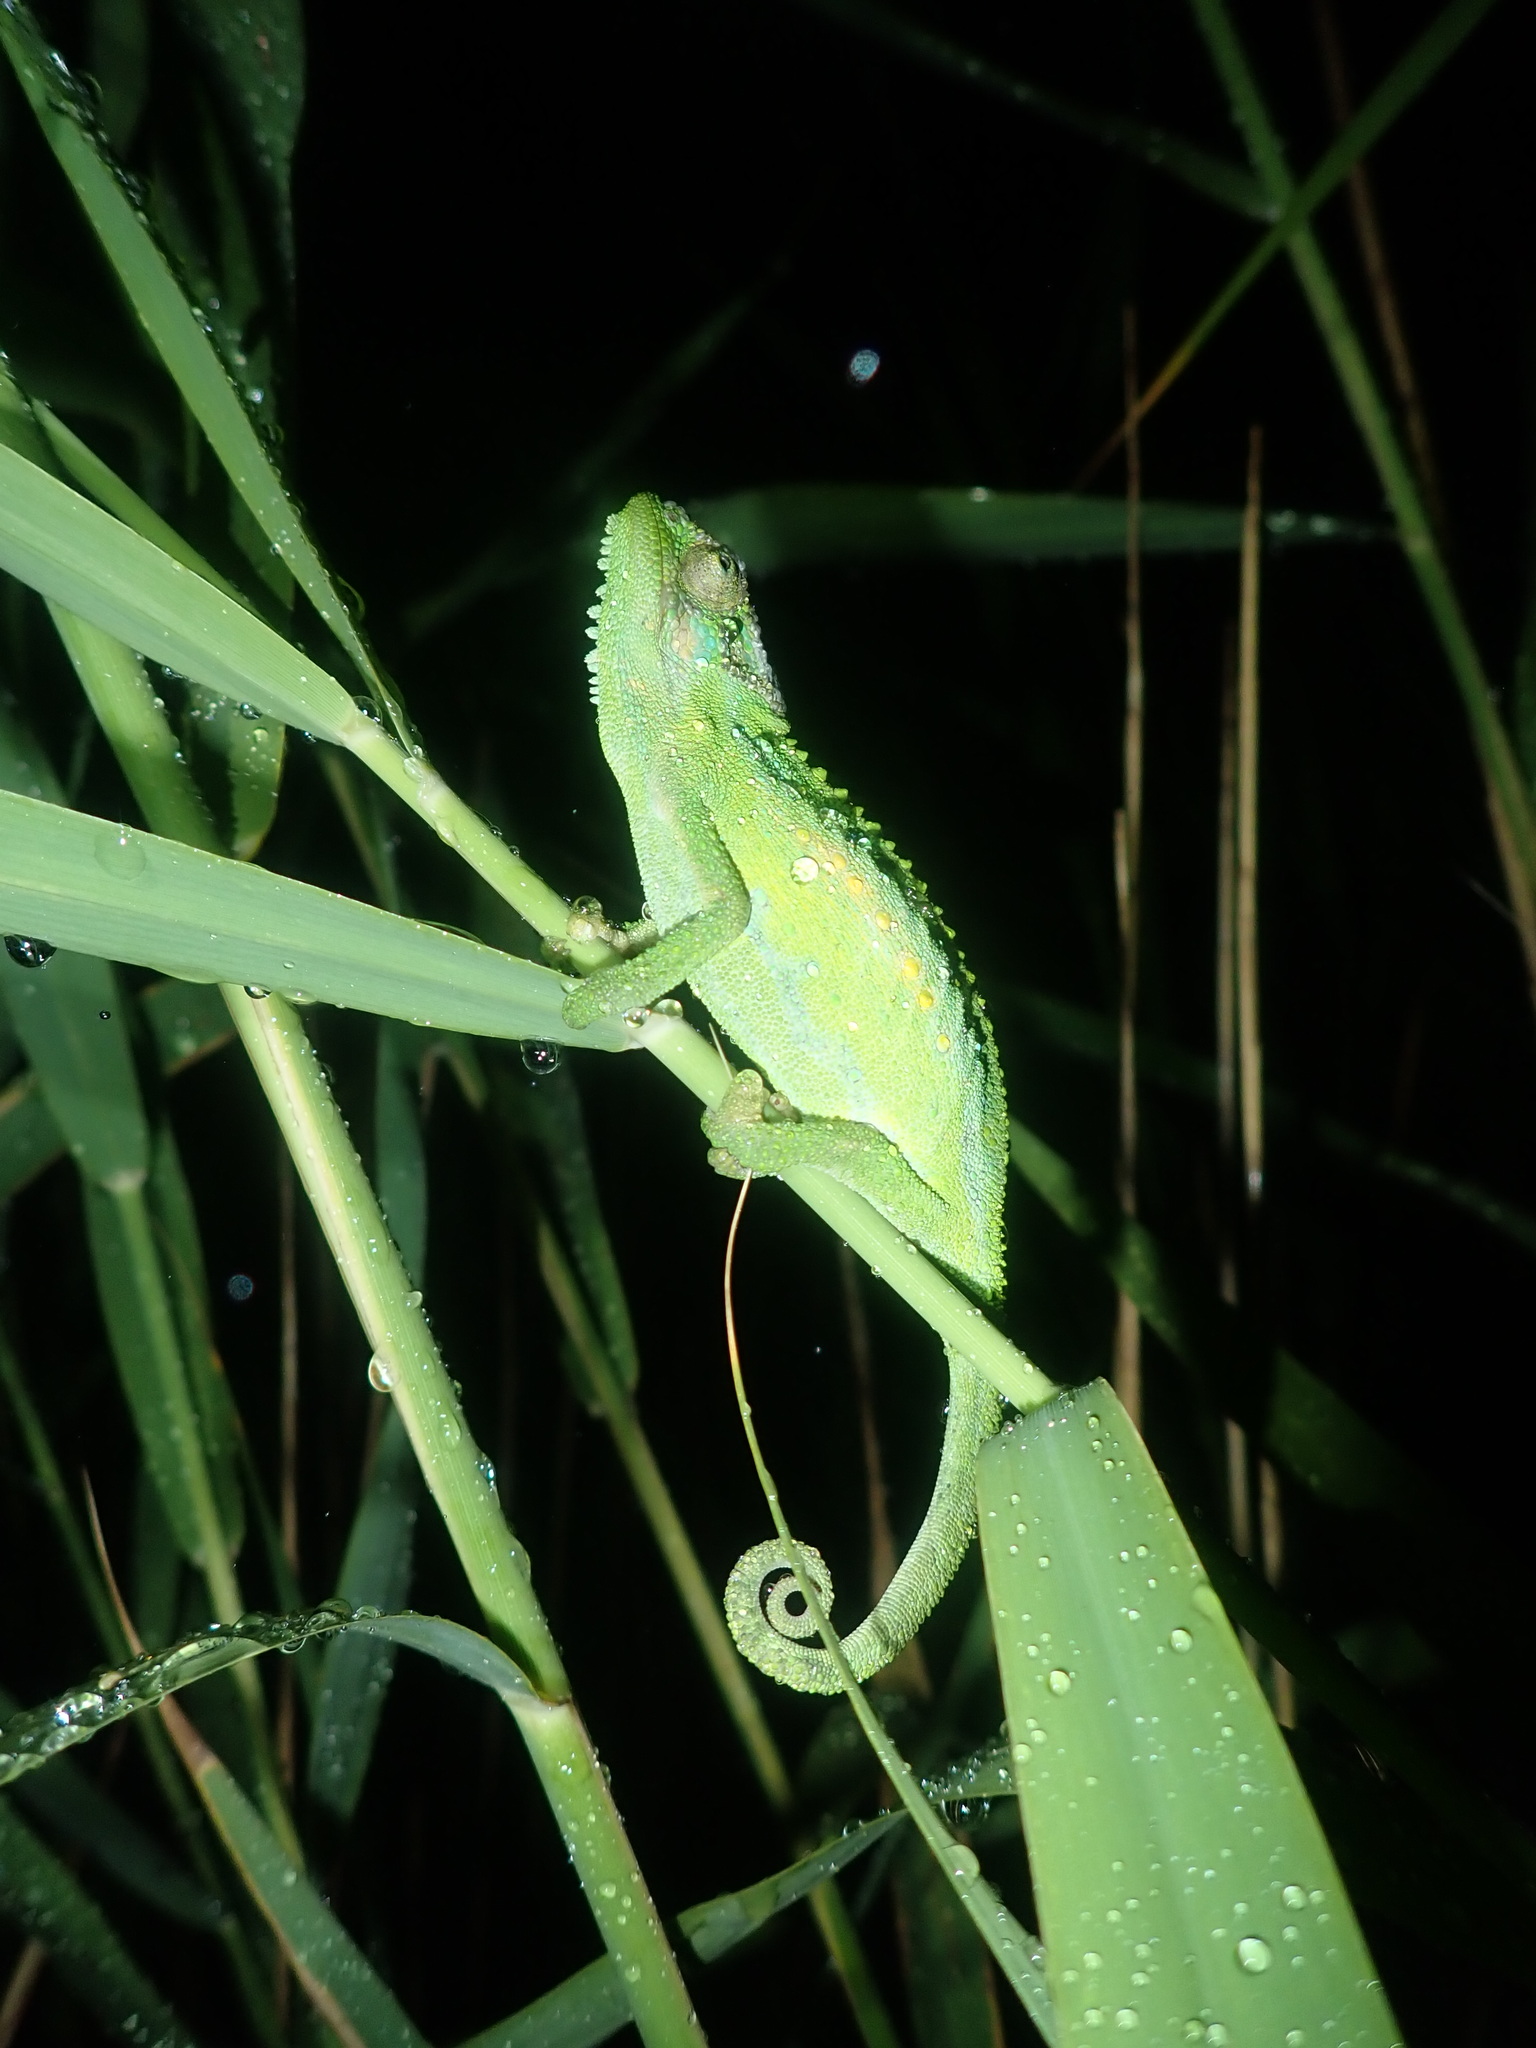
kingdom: Animalia
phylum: Chordata
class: Squamata
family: Chamaeleonidae
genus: Bradypodion
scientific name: Bradypodion pumilum
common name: Cape dwarf chameleon
